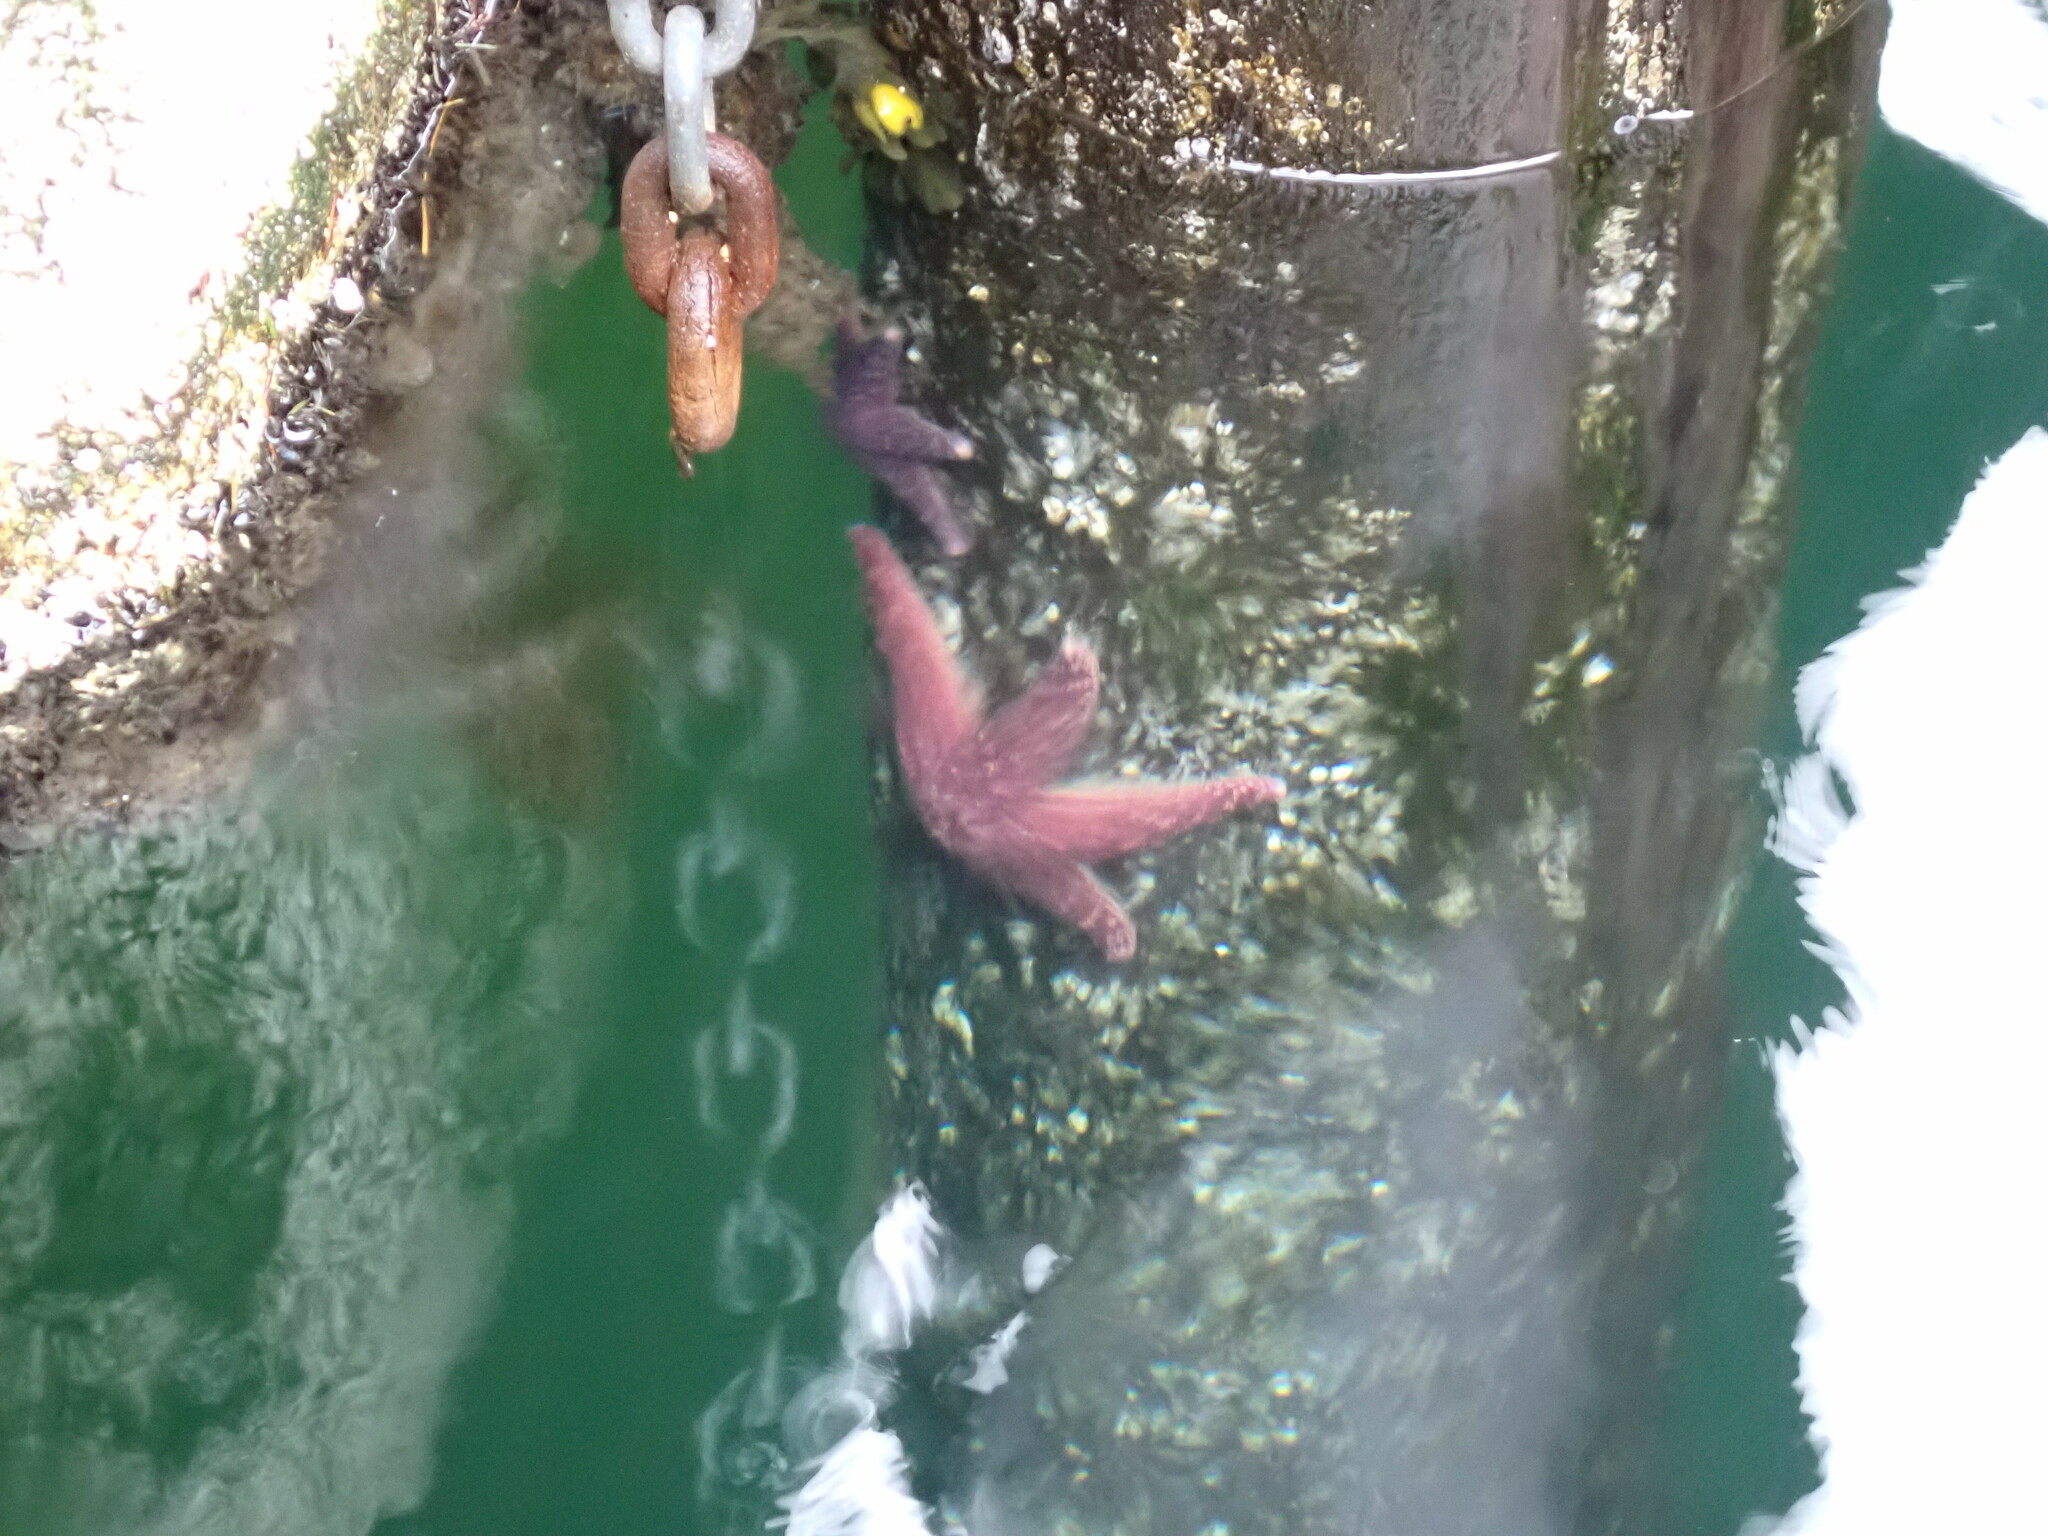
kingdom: Animalia
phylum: Echinodermata
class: Asteroidea
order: Forcipulatida
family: Asteriidae
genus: Pisaster
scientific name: Pisaster ochraceus
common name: Ochre stars
